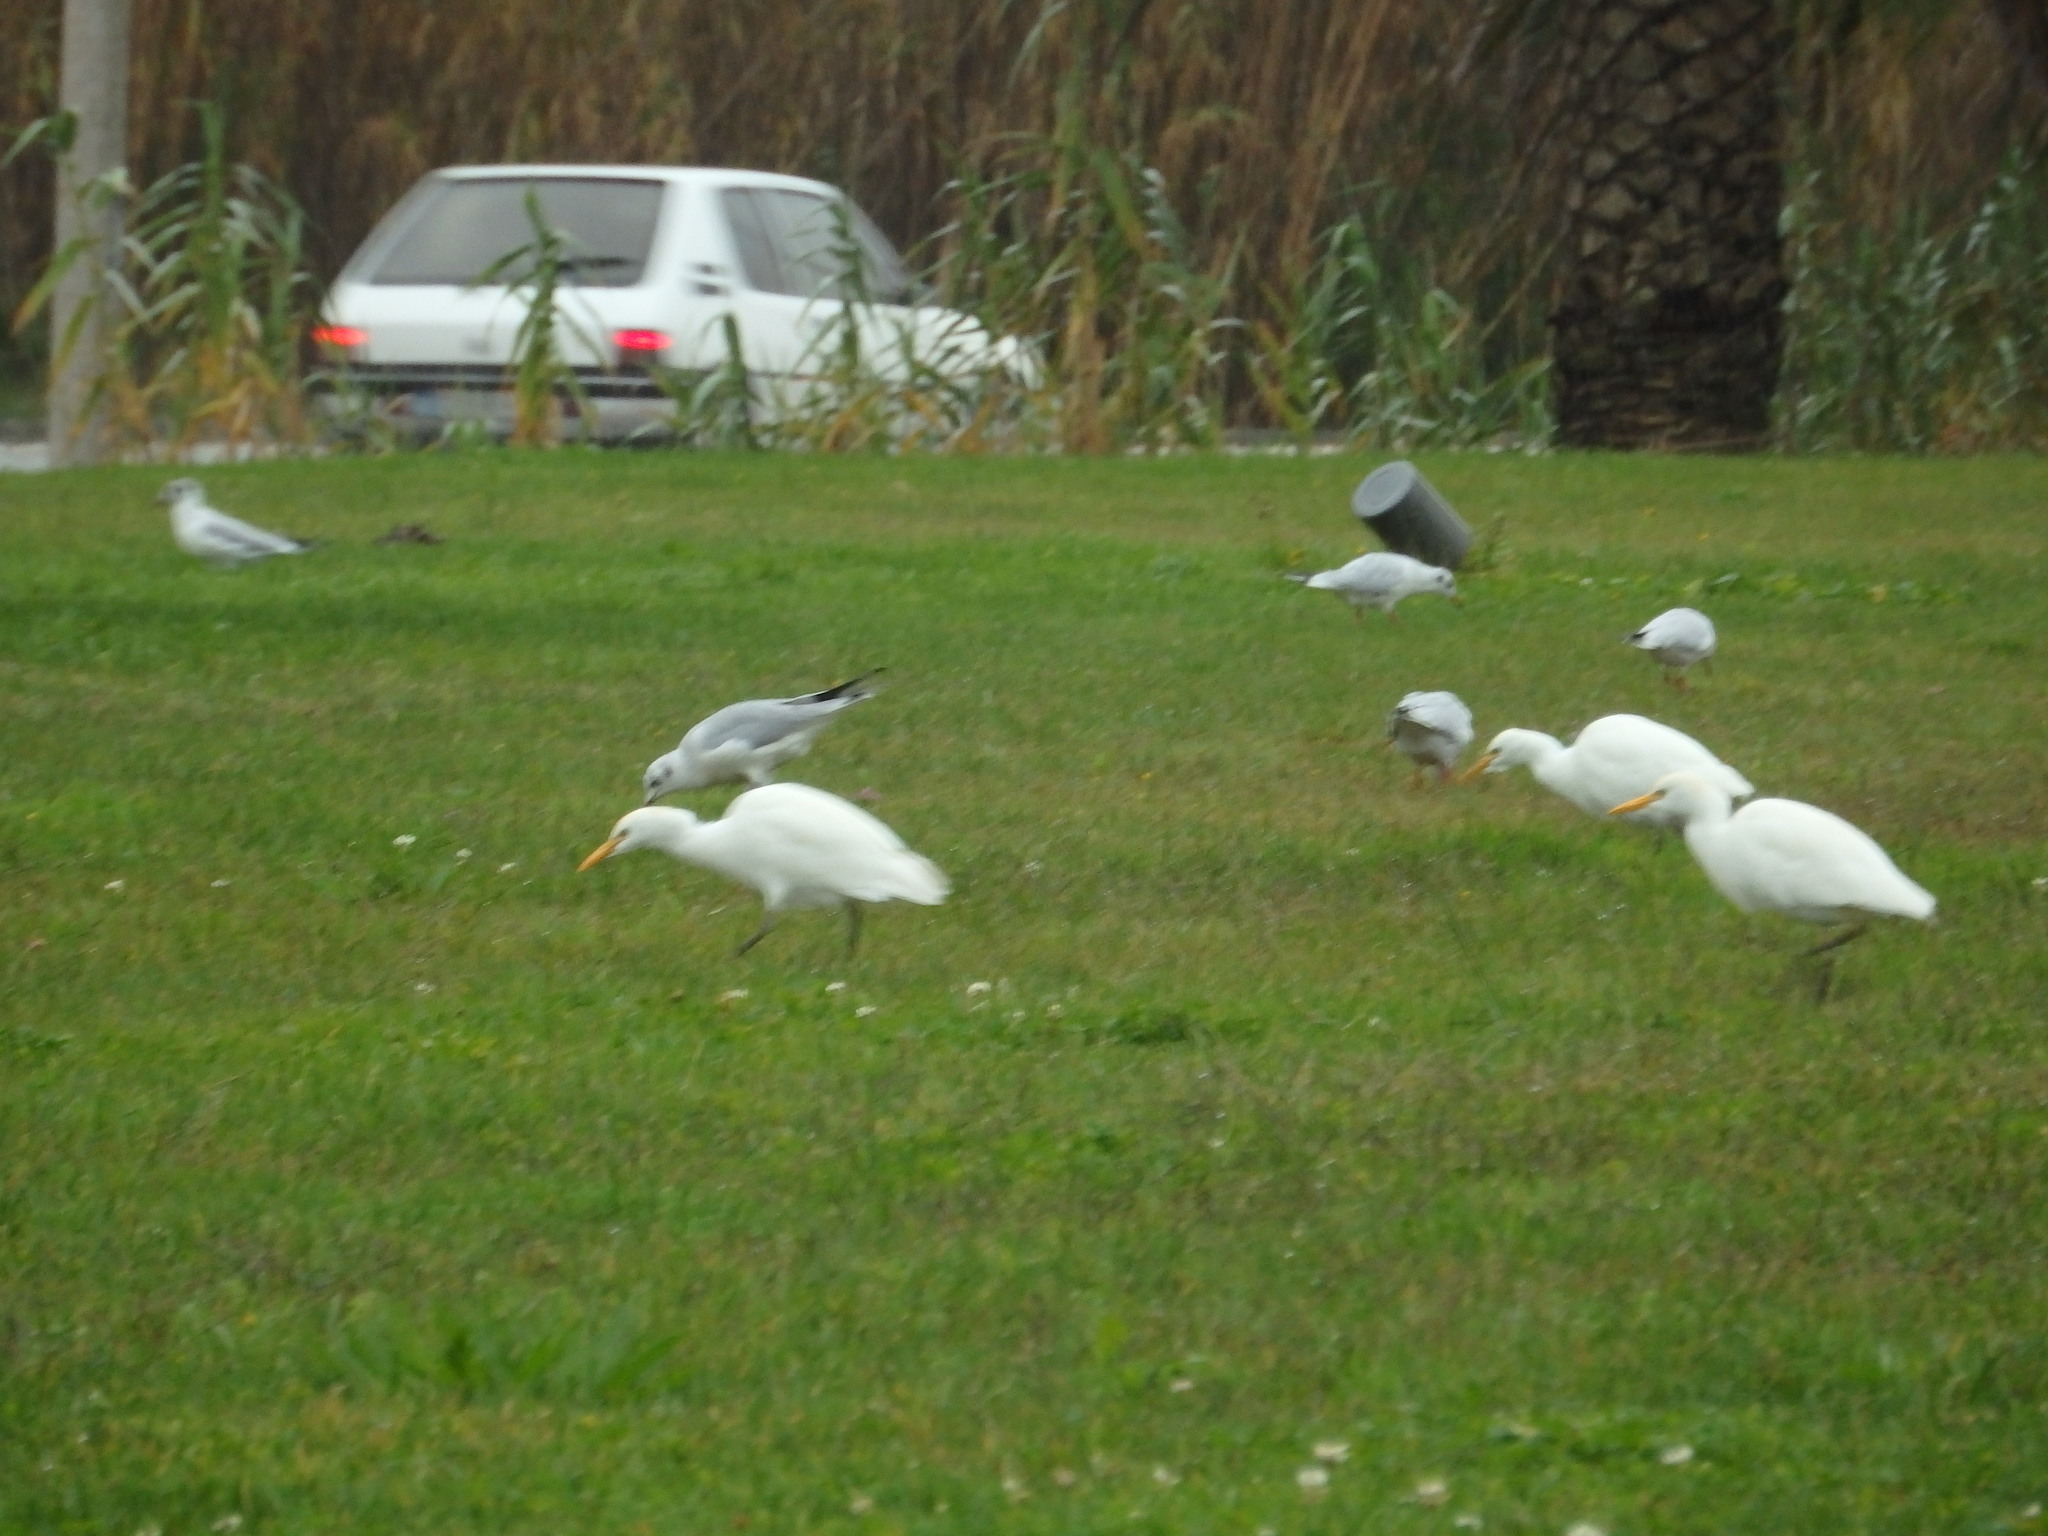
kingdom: Animalia
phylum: Chordata
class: Aves
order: Charadriiformes
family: Laridae
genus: Chroicocephalus
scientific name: Chroicocephalus ridibundus
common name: Black-headed gull
